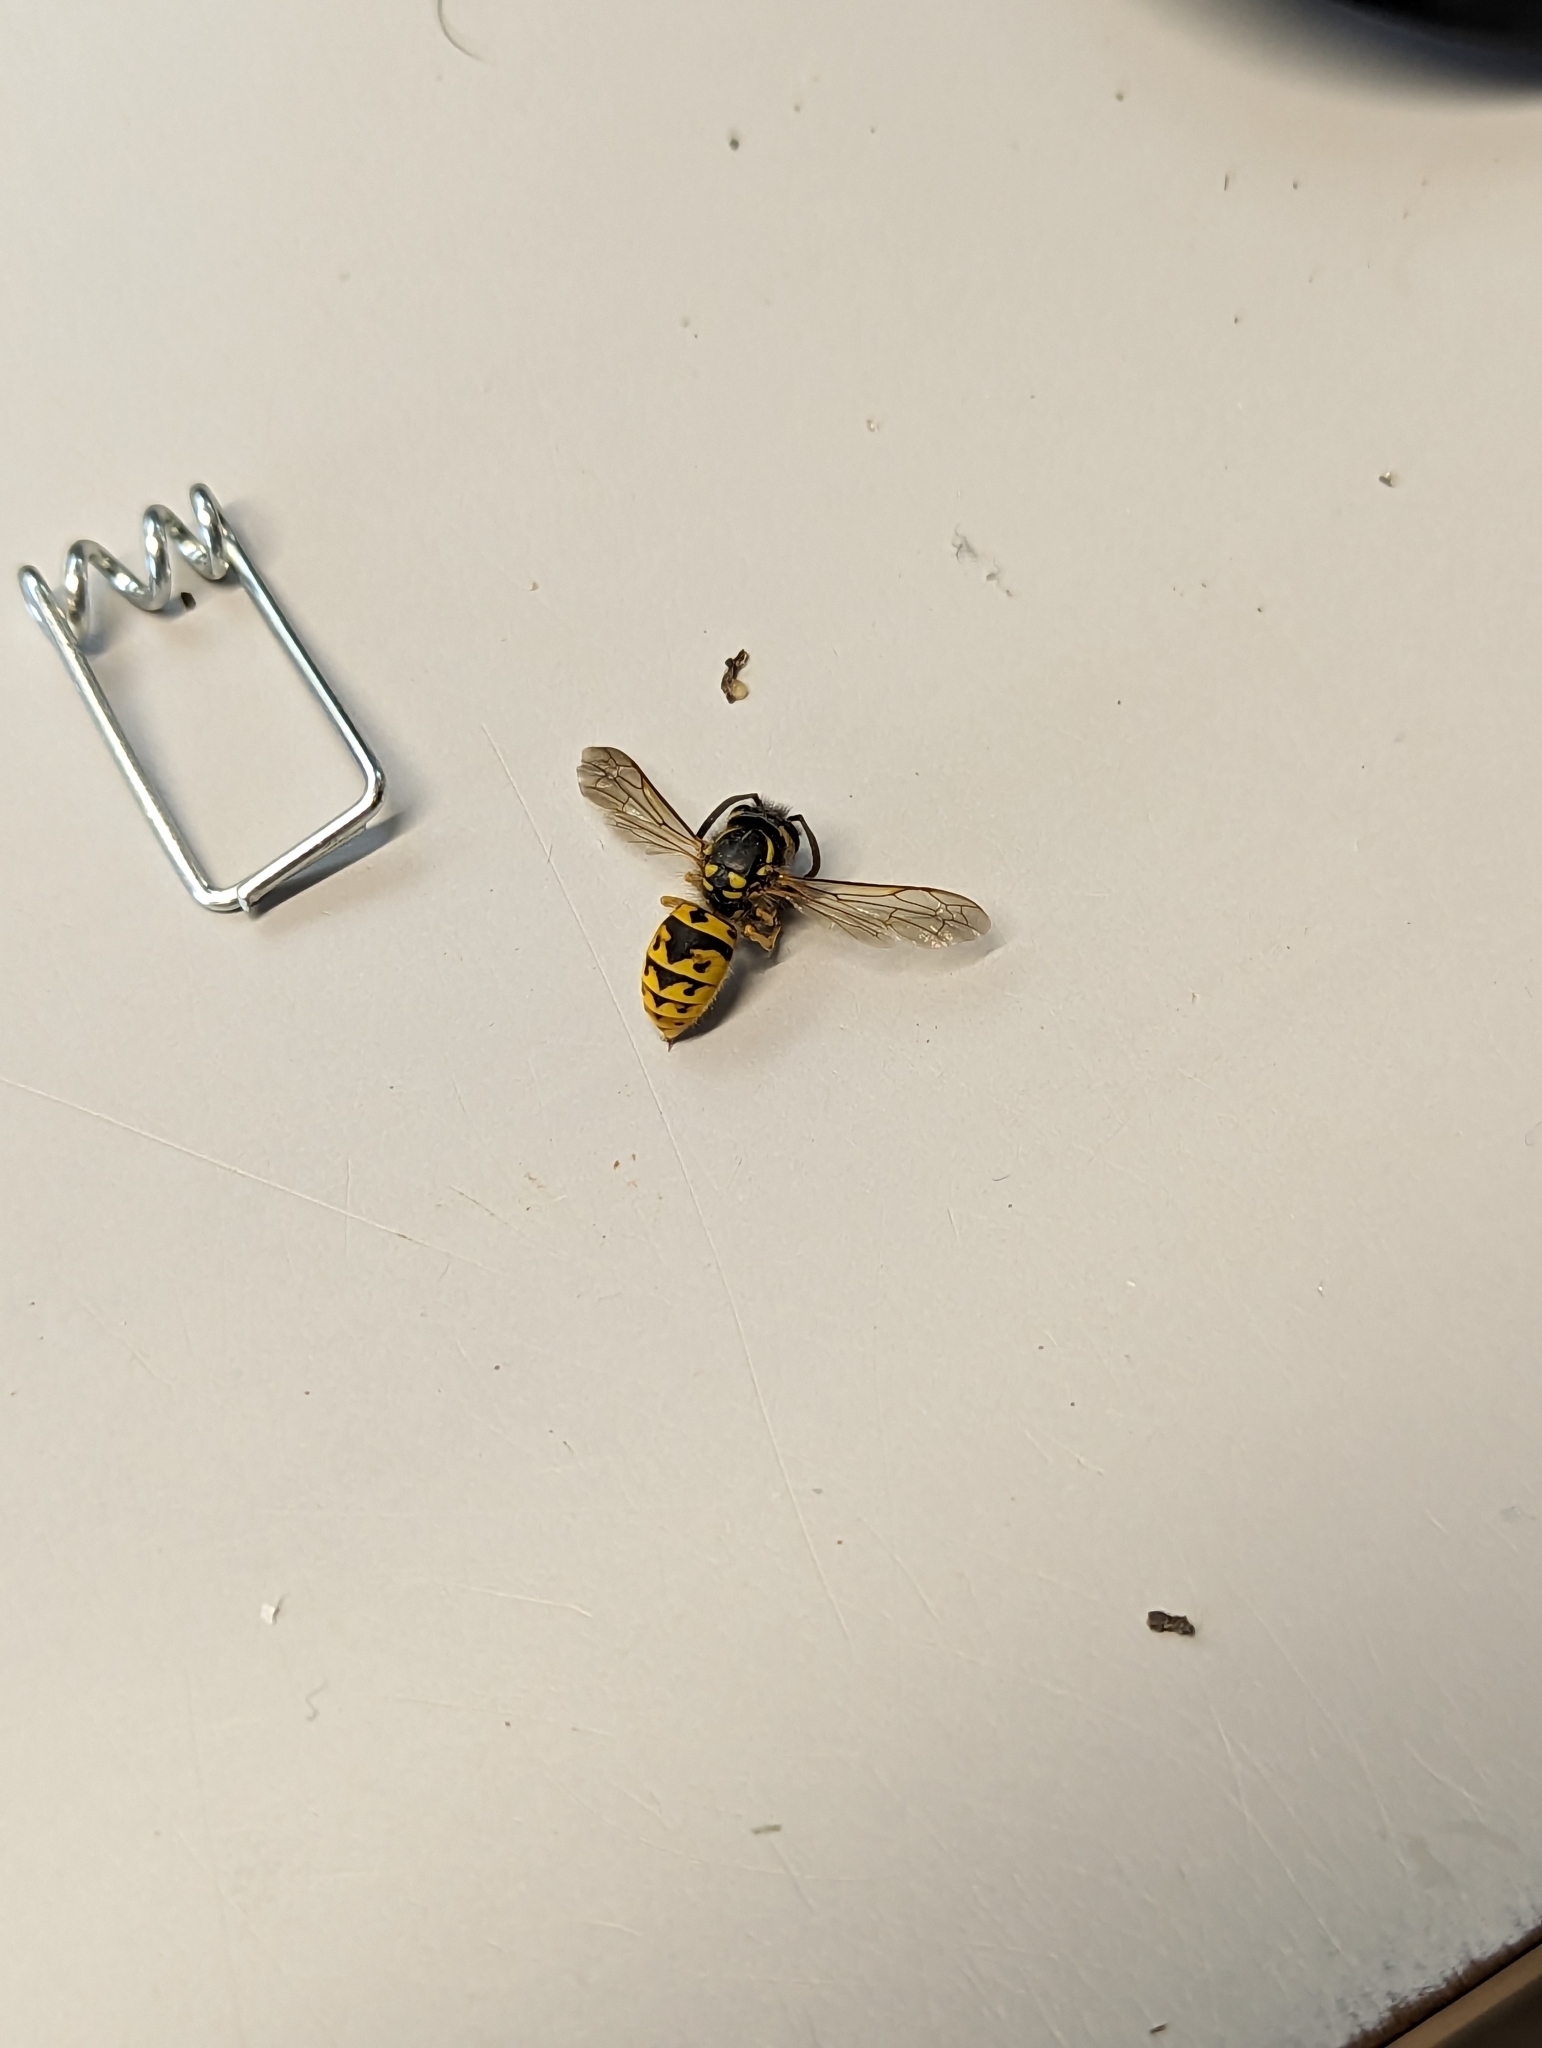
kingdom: Animalia
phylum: Arthropoda
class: Insecta
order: Hymenoptera
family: Vespidae
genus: Vespula
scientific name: Vespula germanica
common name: German wasp
